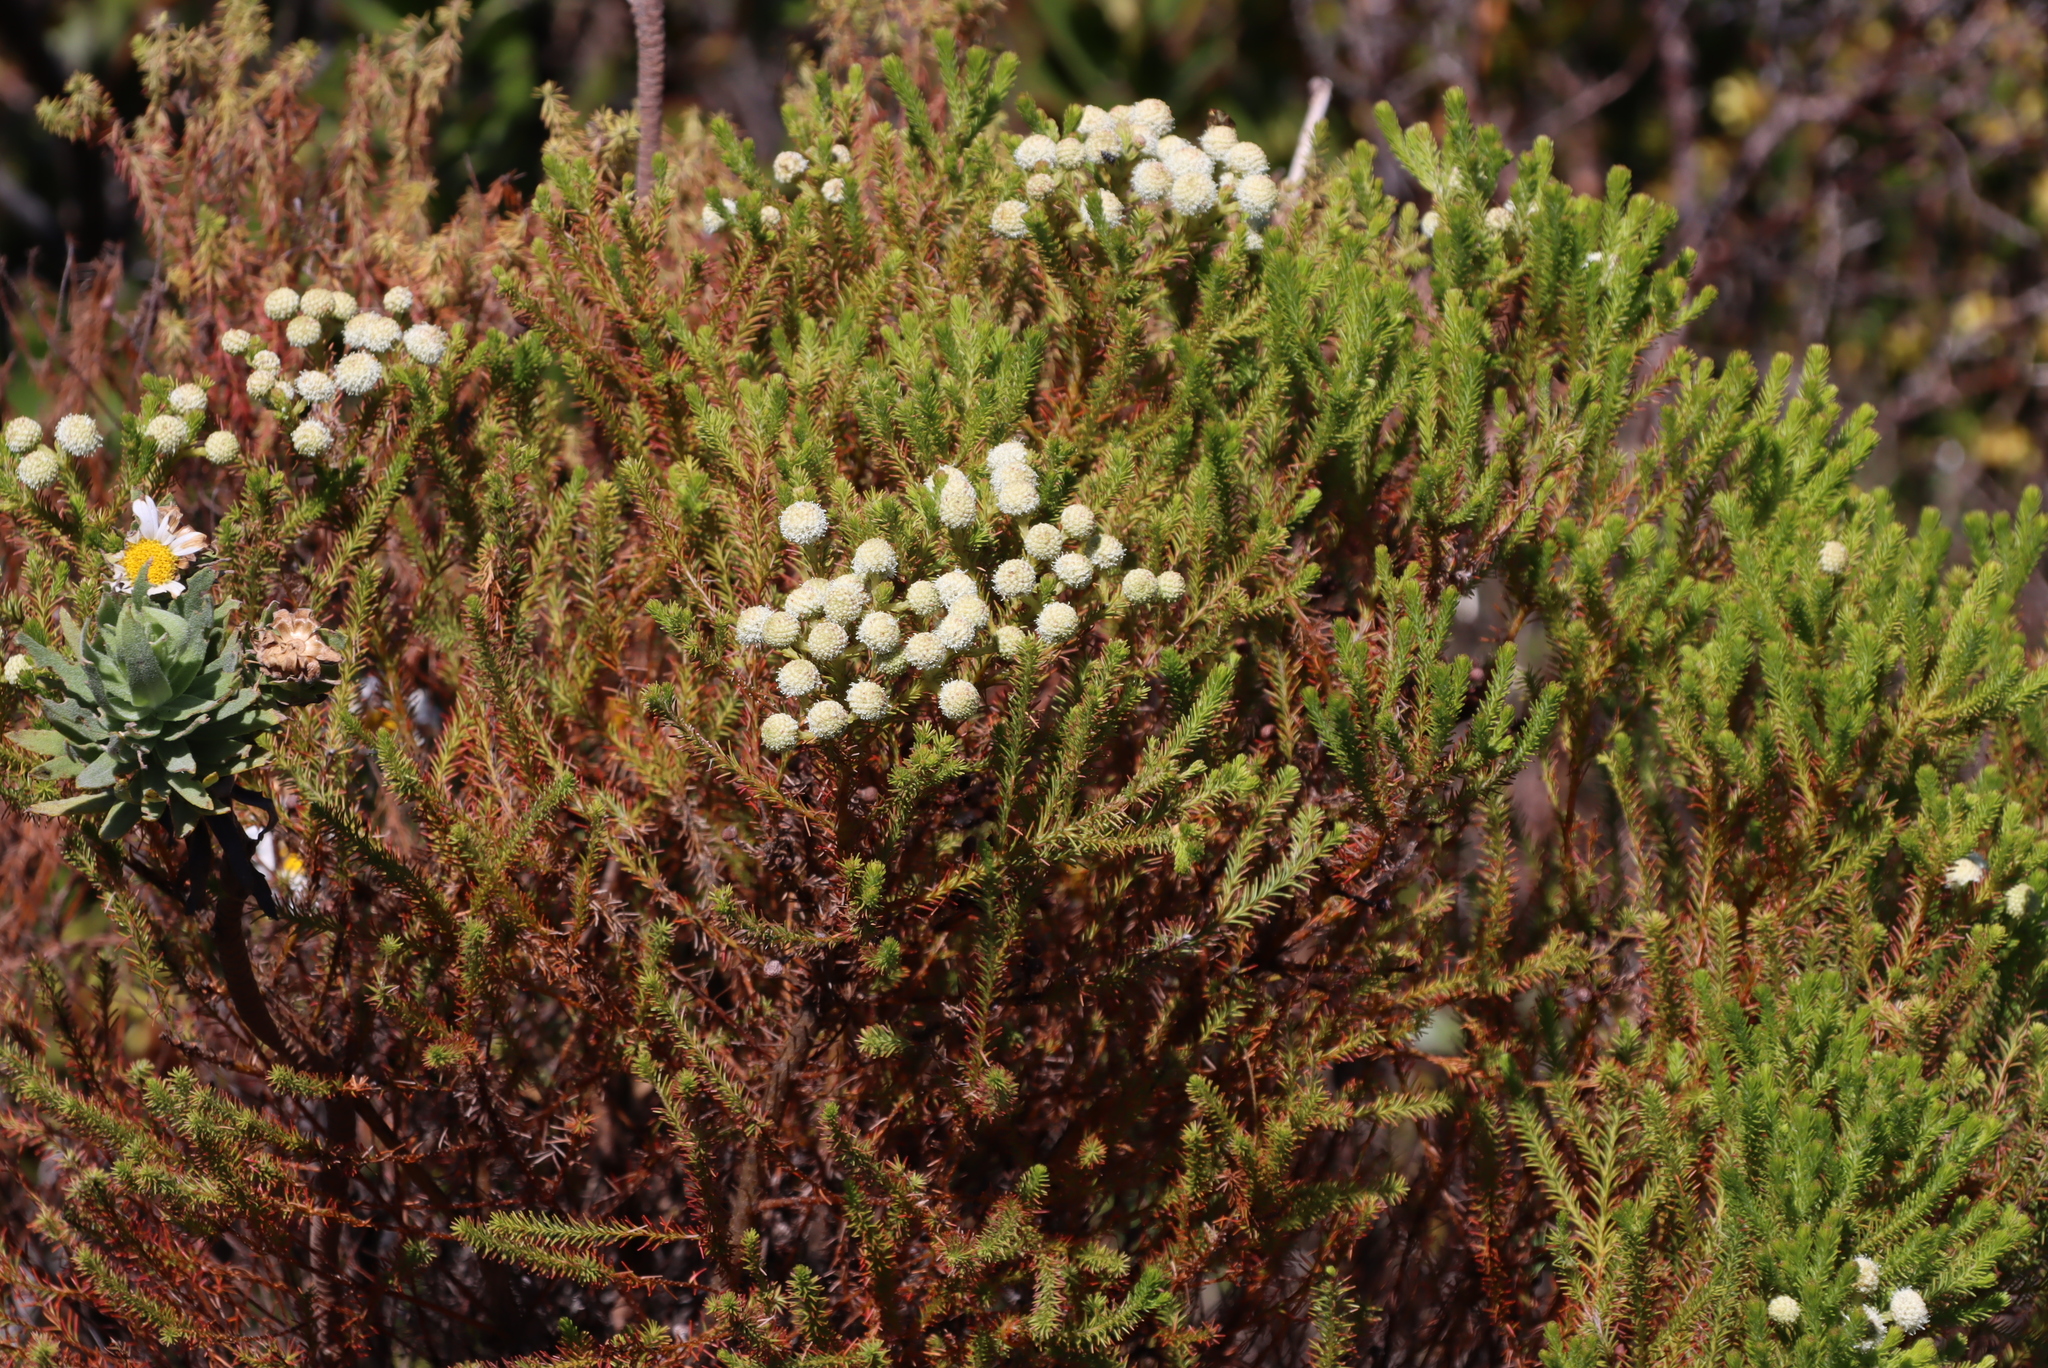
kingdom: Plantae
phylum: Tracheophyta
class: Magnoliopsida
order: Bruniales
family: Bruniaceae
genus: Berzelia
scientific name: Berzelia lanuginosa
